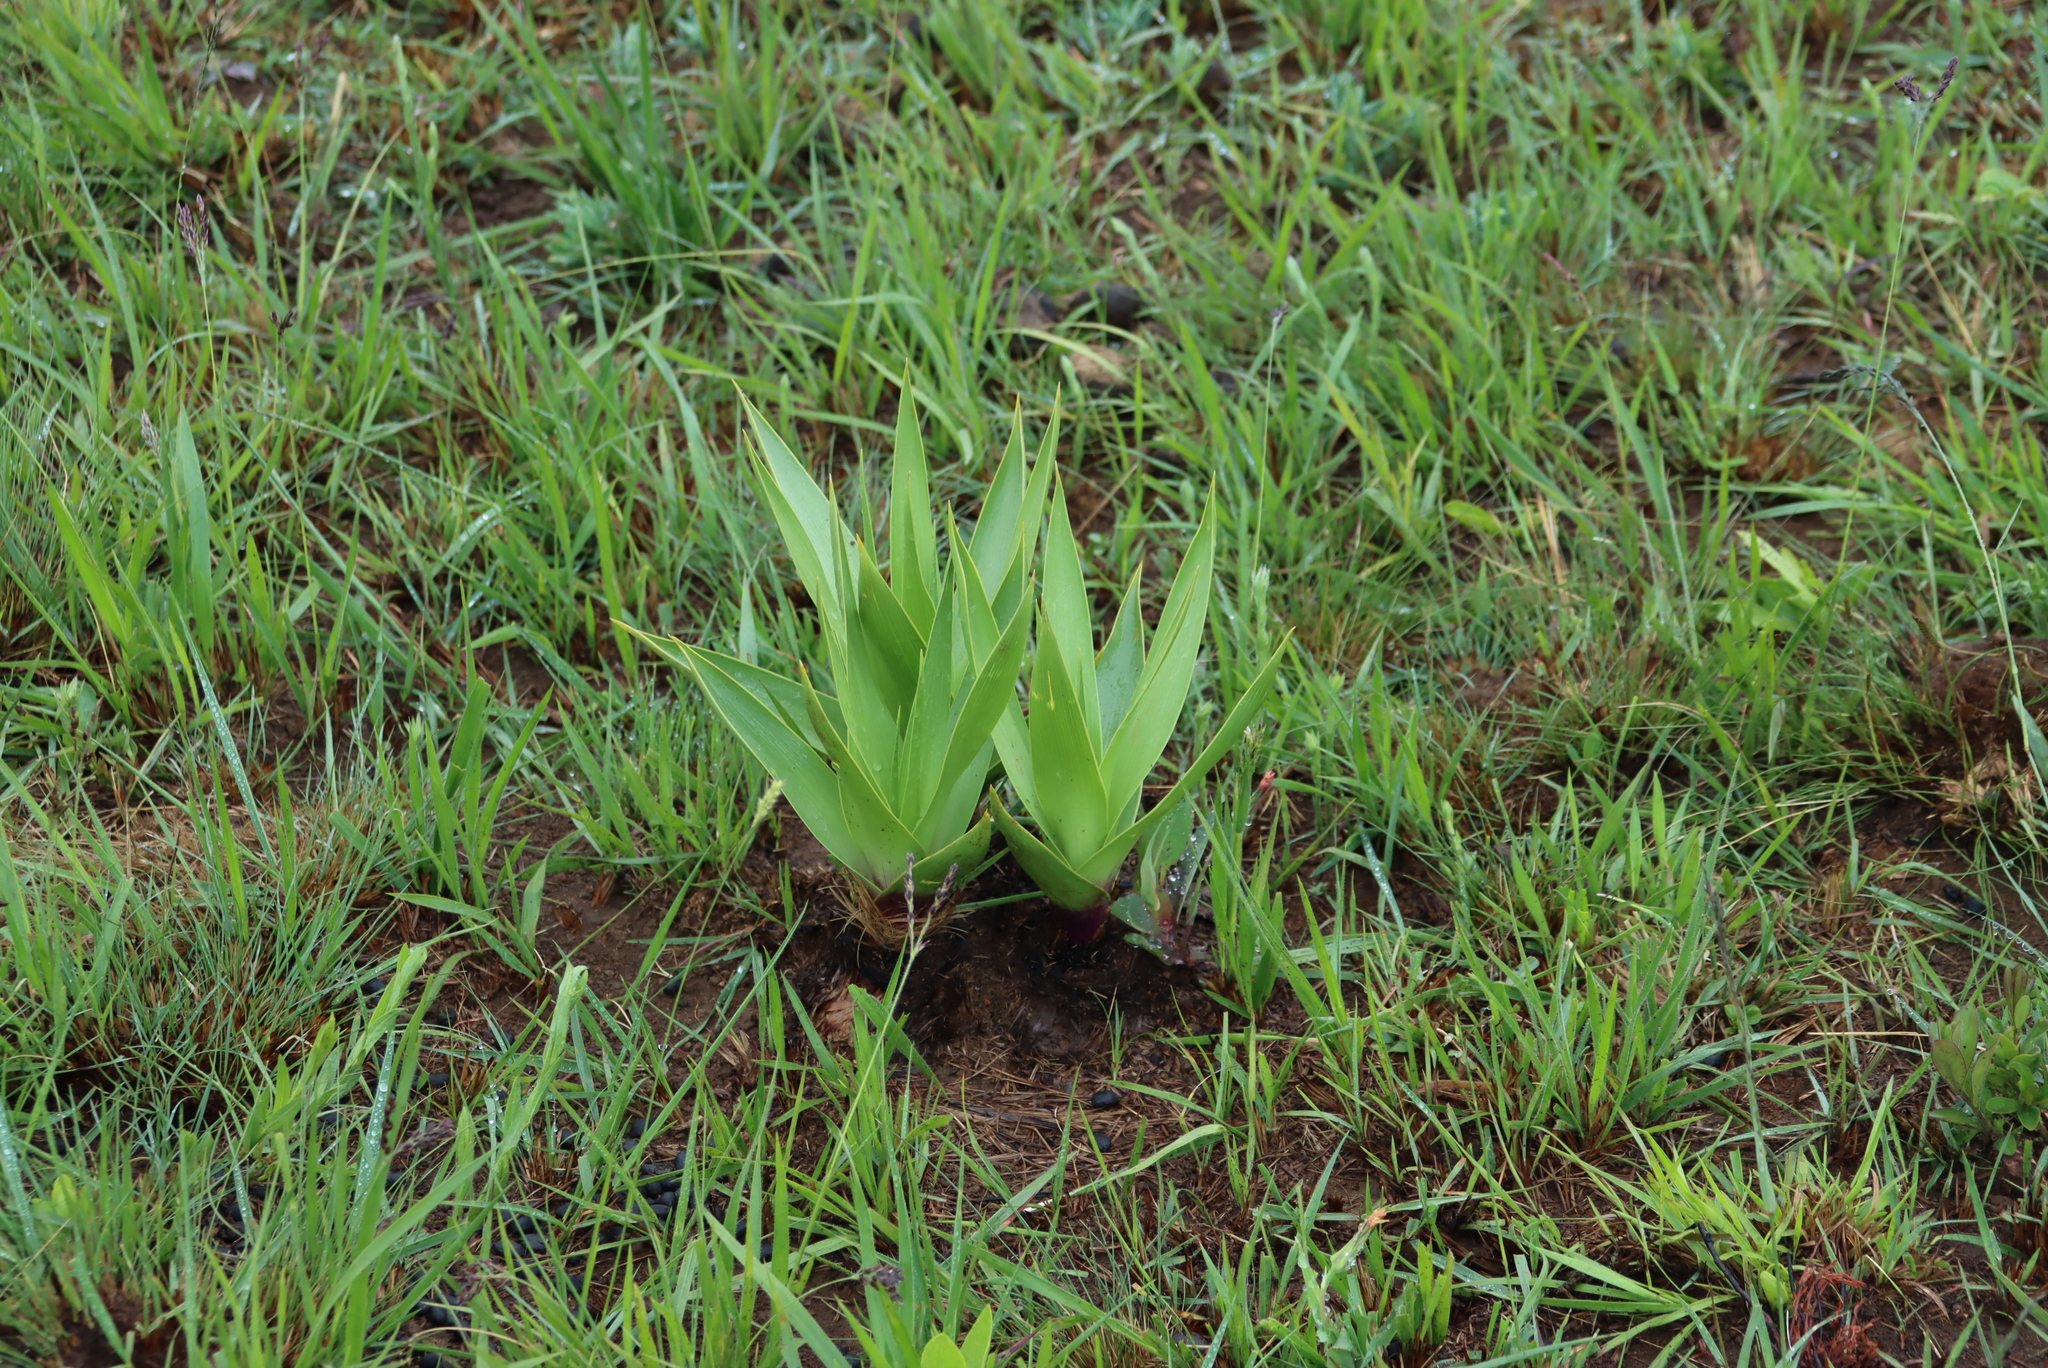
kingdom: Plantae
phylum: Tracheophyta
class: Liliopsida
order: Asparagales
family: Asparagaceae
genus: Schizocarphus
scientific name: Schizocarphus nervosus
